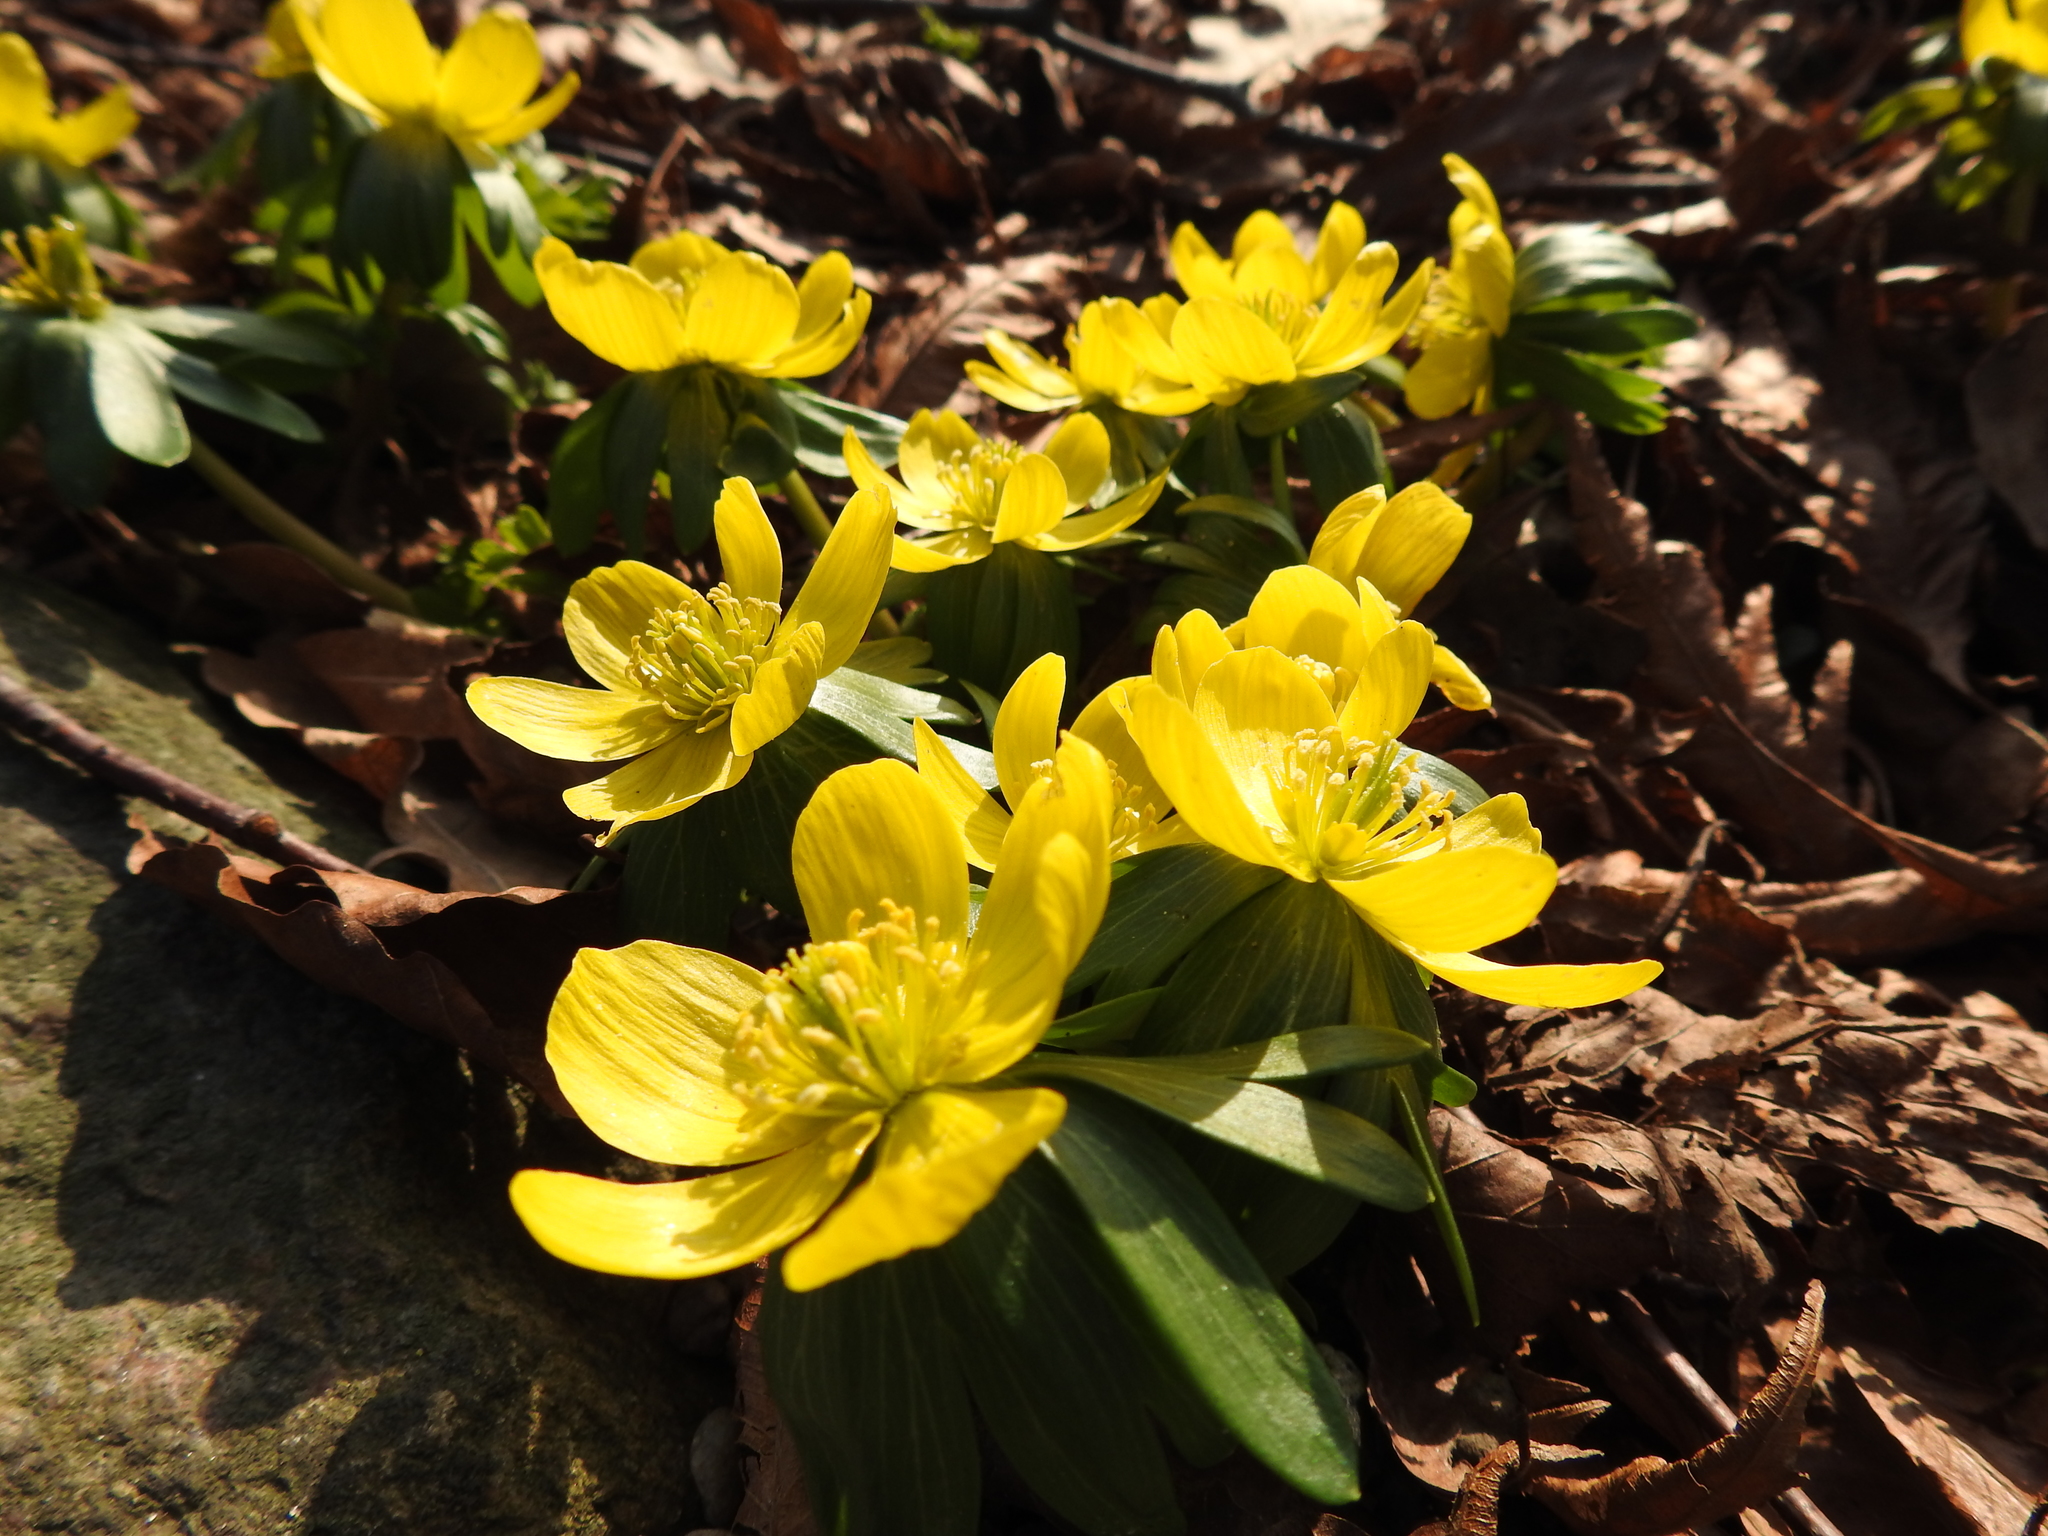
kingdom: Plantae
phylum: Tracheophyta
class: Magnoliopsida
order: Ranunculales
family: Ranunculaceae
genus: Eranthis
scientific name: Eranthis hyemalis
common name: Winter aconite
